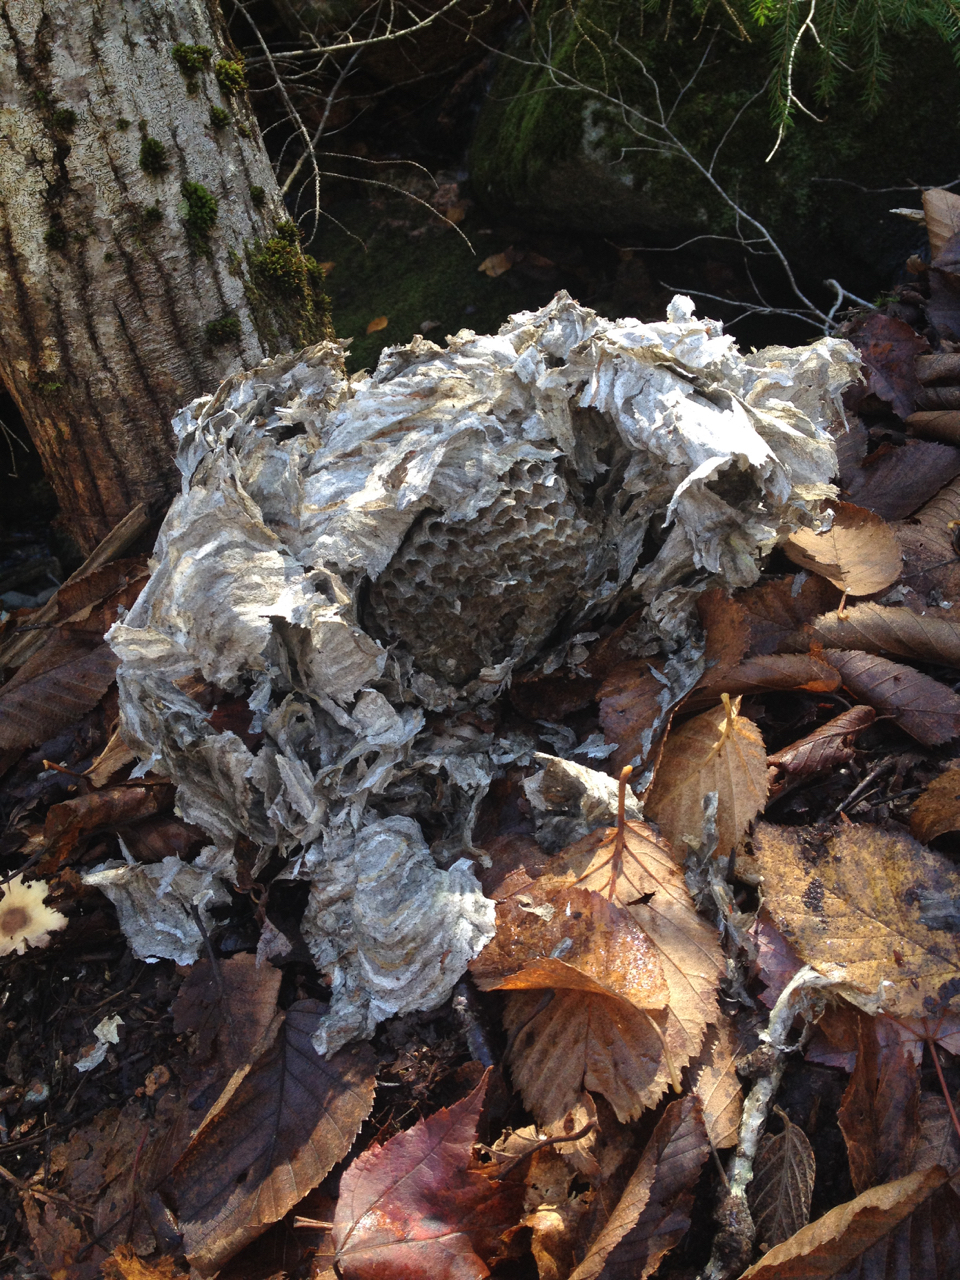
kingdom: Animalia
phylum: Arthropoda
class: Insecta
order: Hymenoptera
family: Vespidae
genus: Dolichovespula
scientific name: Dolichovespula maculata
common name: Bald-faced hornet
